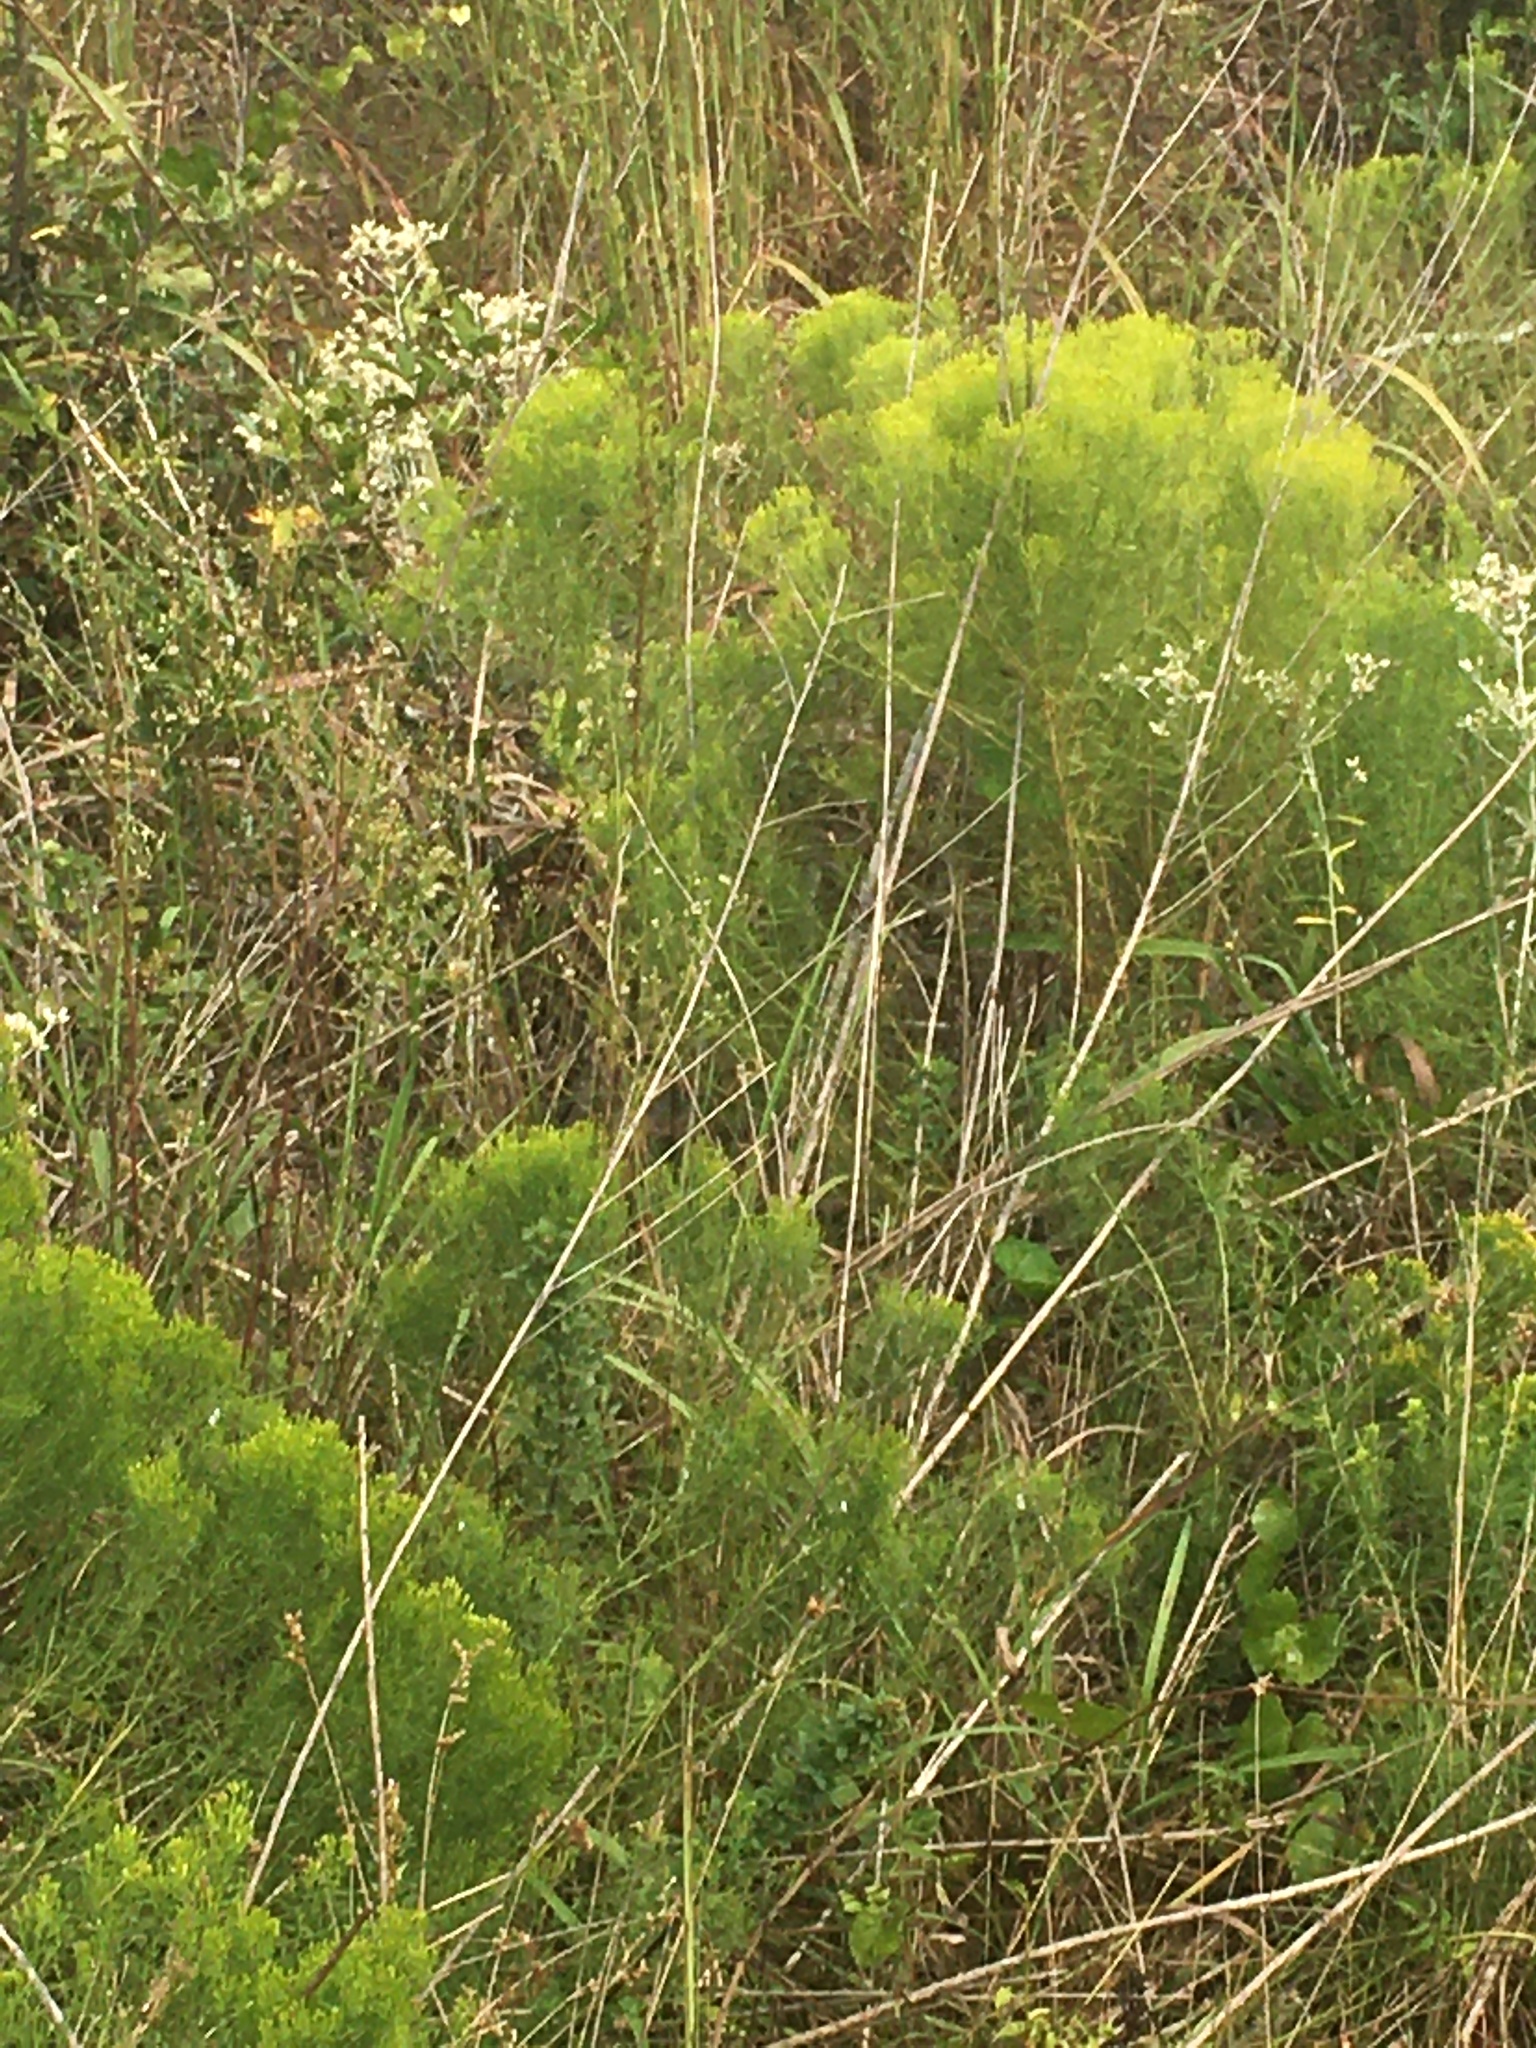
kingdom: Plantae
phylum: Tracheophyta
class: Magnoliopsida
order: Asterales
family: Asteraceae
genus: Euthamia
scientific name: Euthamia caroliniana
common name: Coastal plain goldentop
